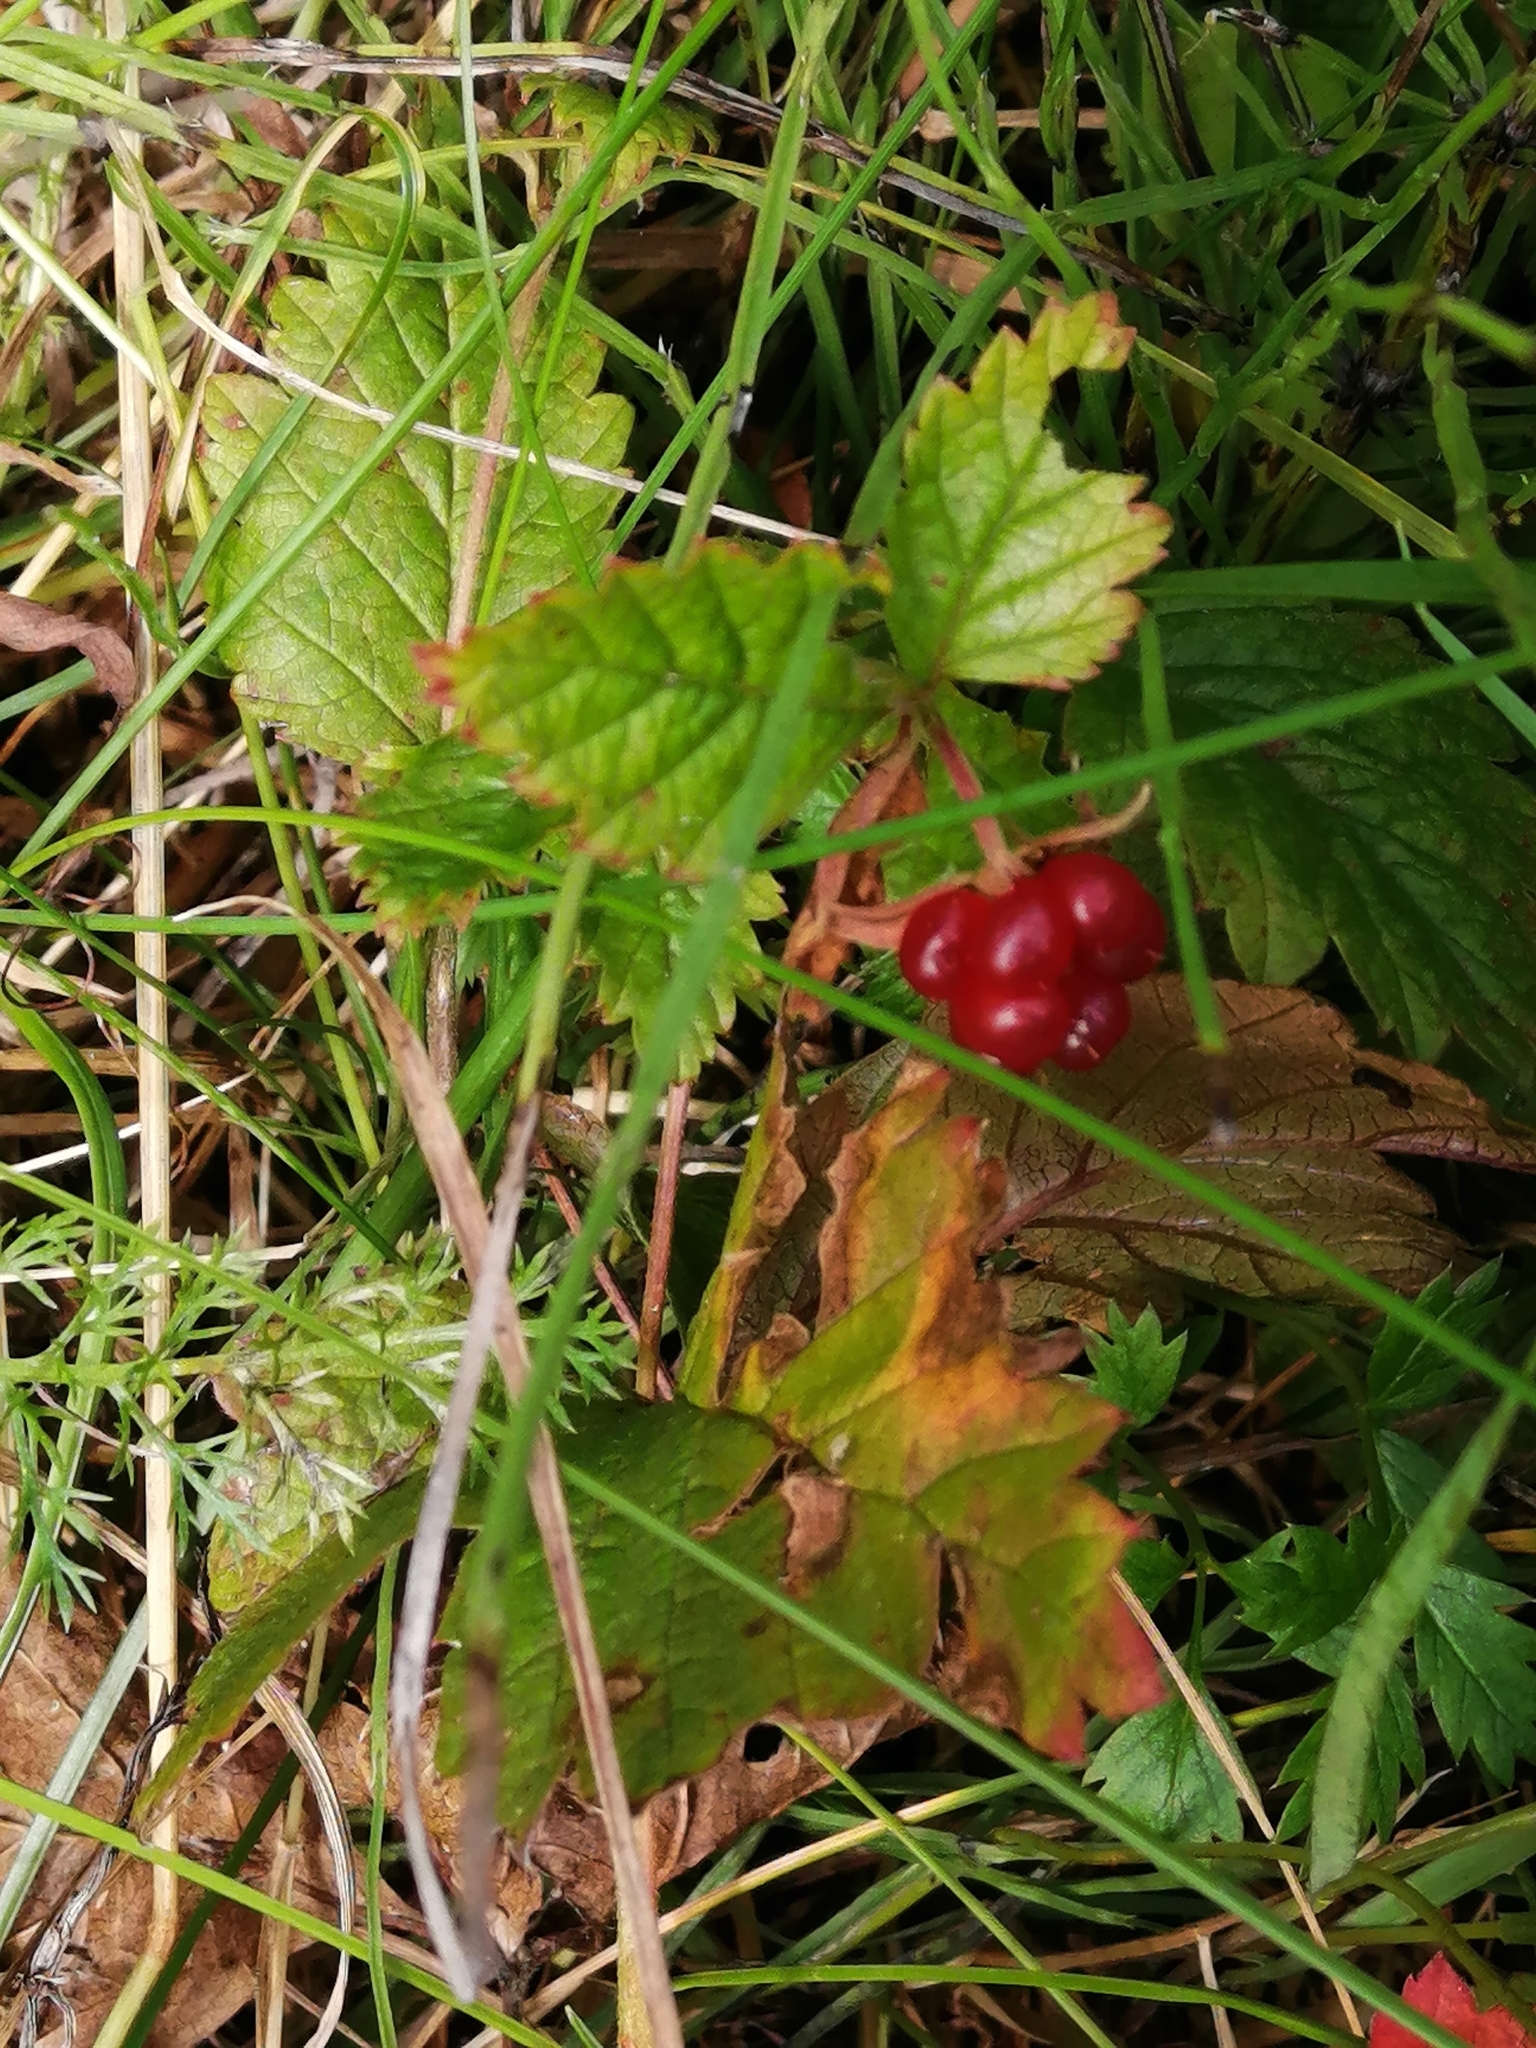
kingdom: Plantae
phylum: Tracheophyta
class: Magnoliopsida
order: Rosales
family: Rosaceae
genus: Rubus
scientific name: Rubus arcticus
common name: Arctic bramble
